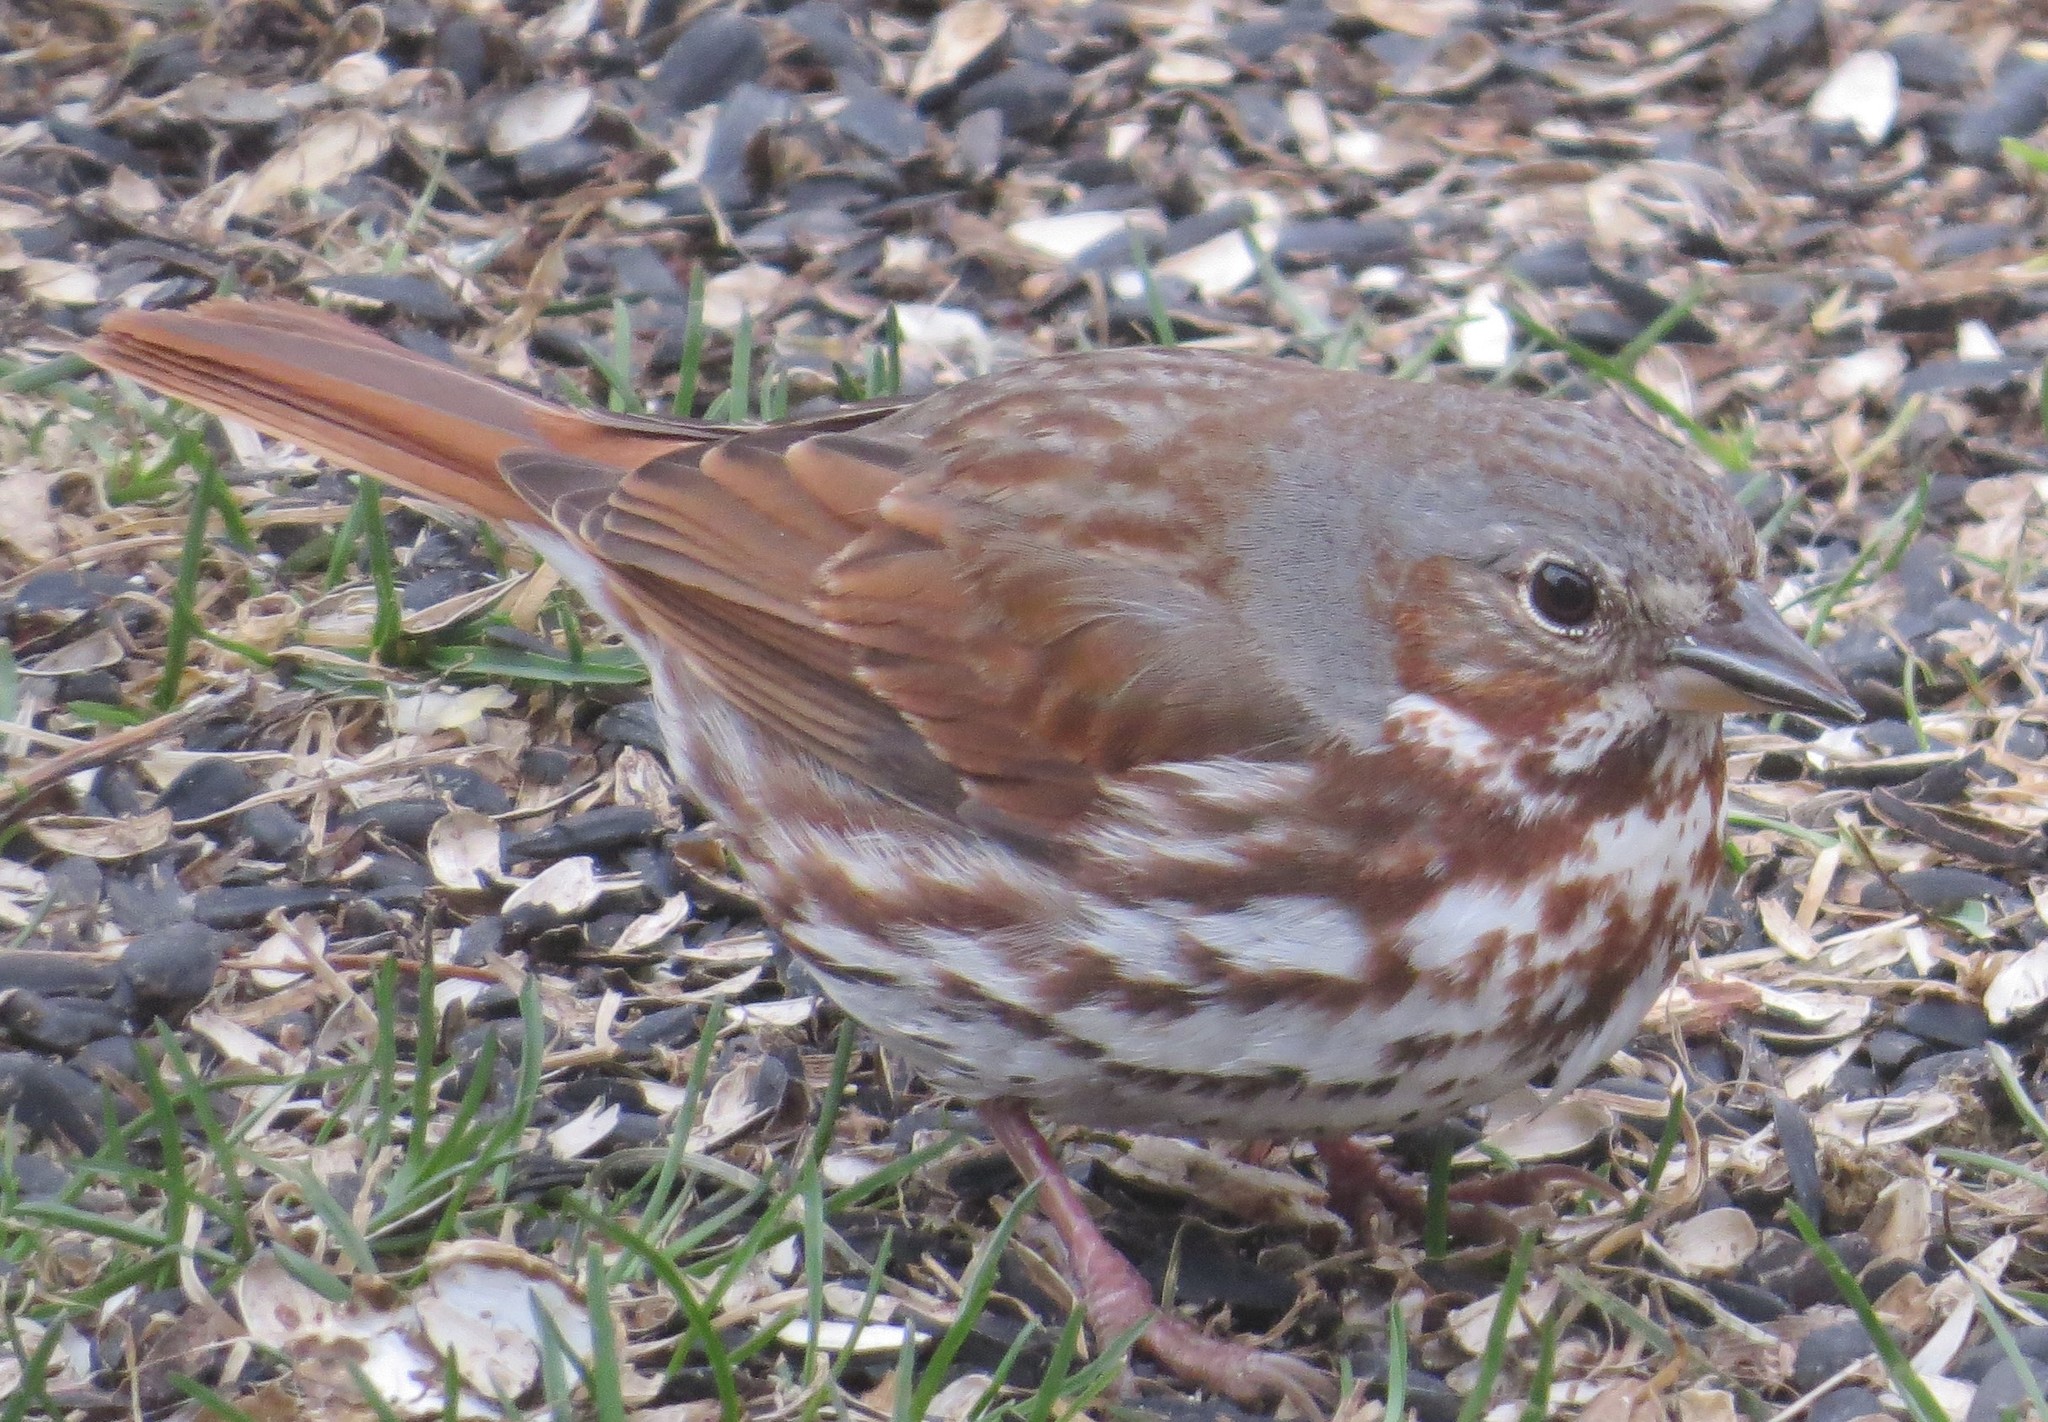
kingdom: Animalia
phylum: Chordata
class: Aves
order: Passeriformes
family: Passerellidae
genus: Passerella
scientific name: Passerella iliaca
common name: Fox sparrow
